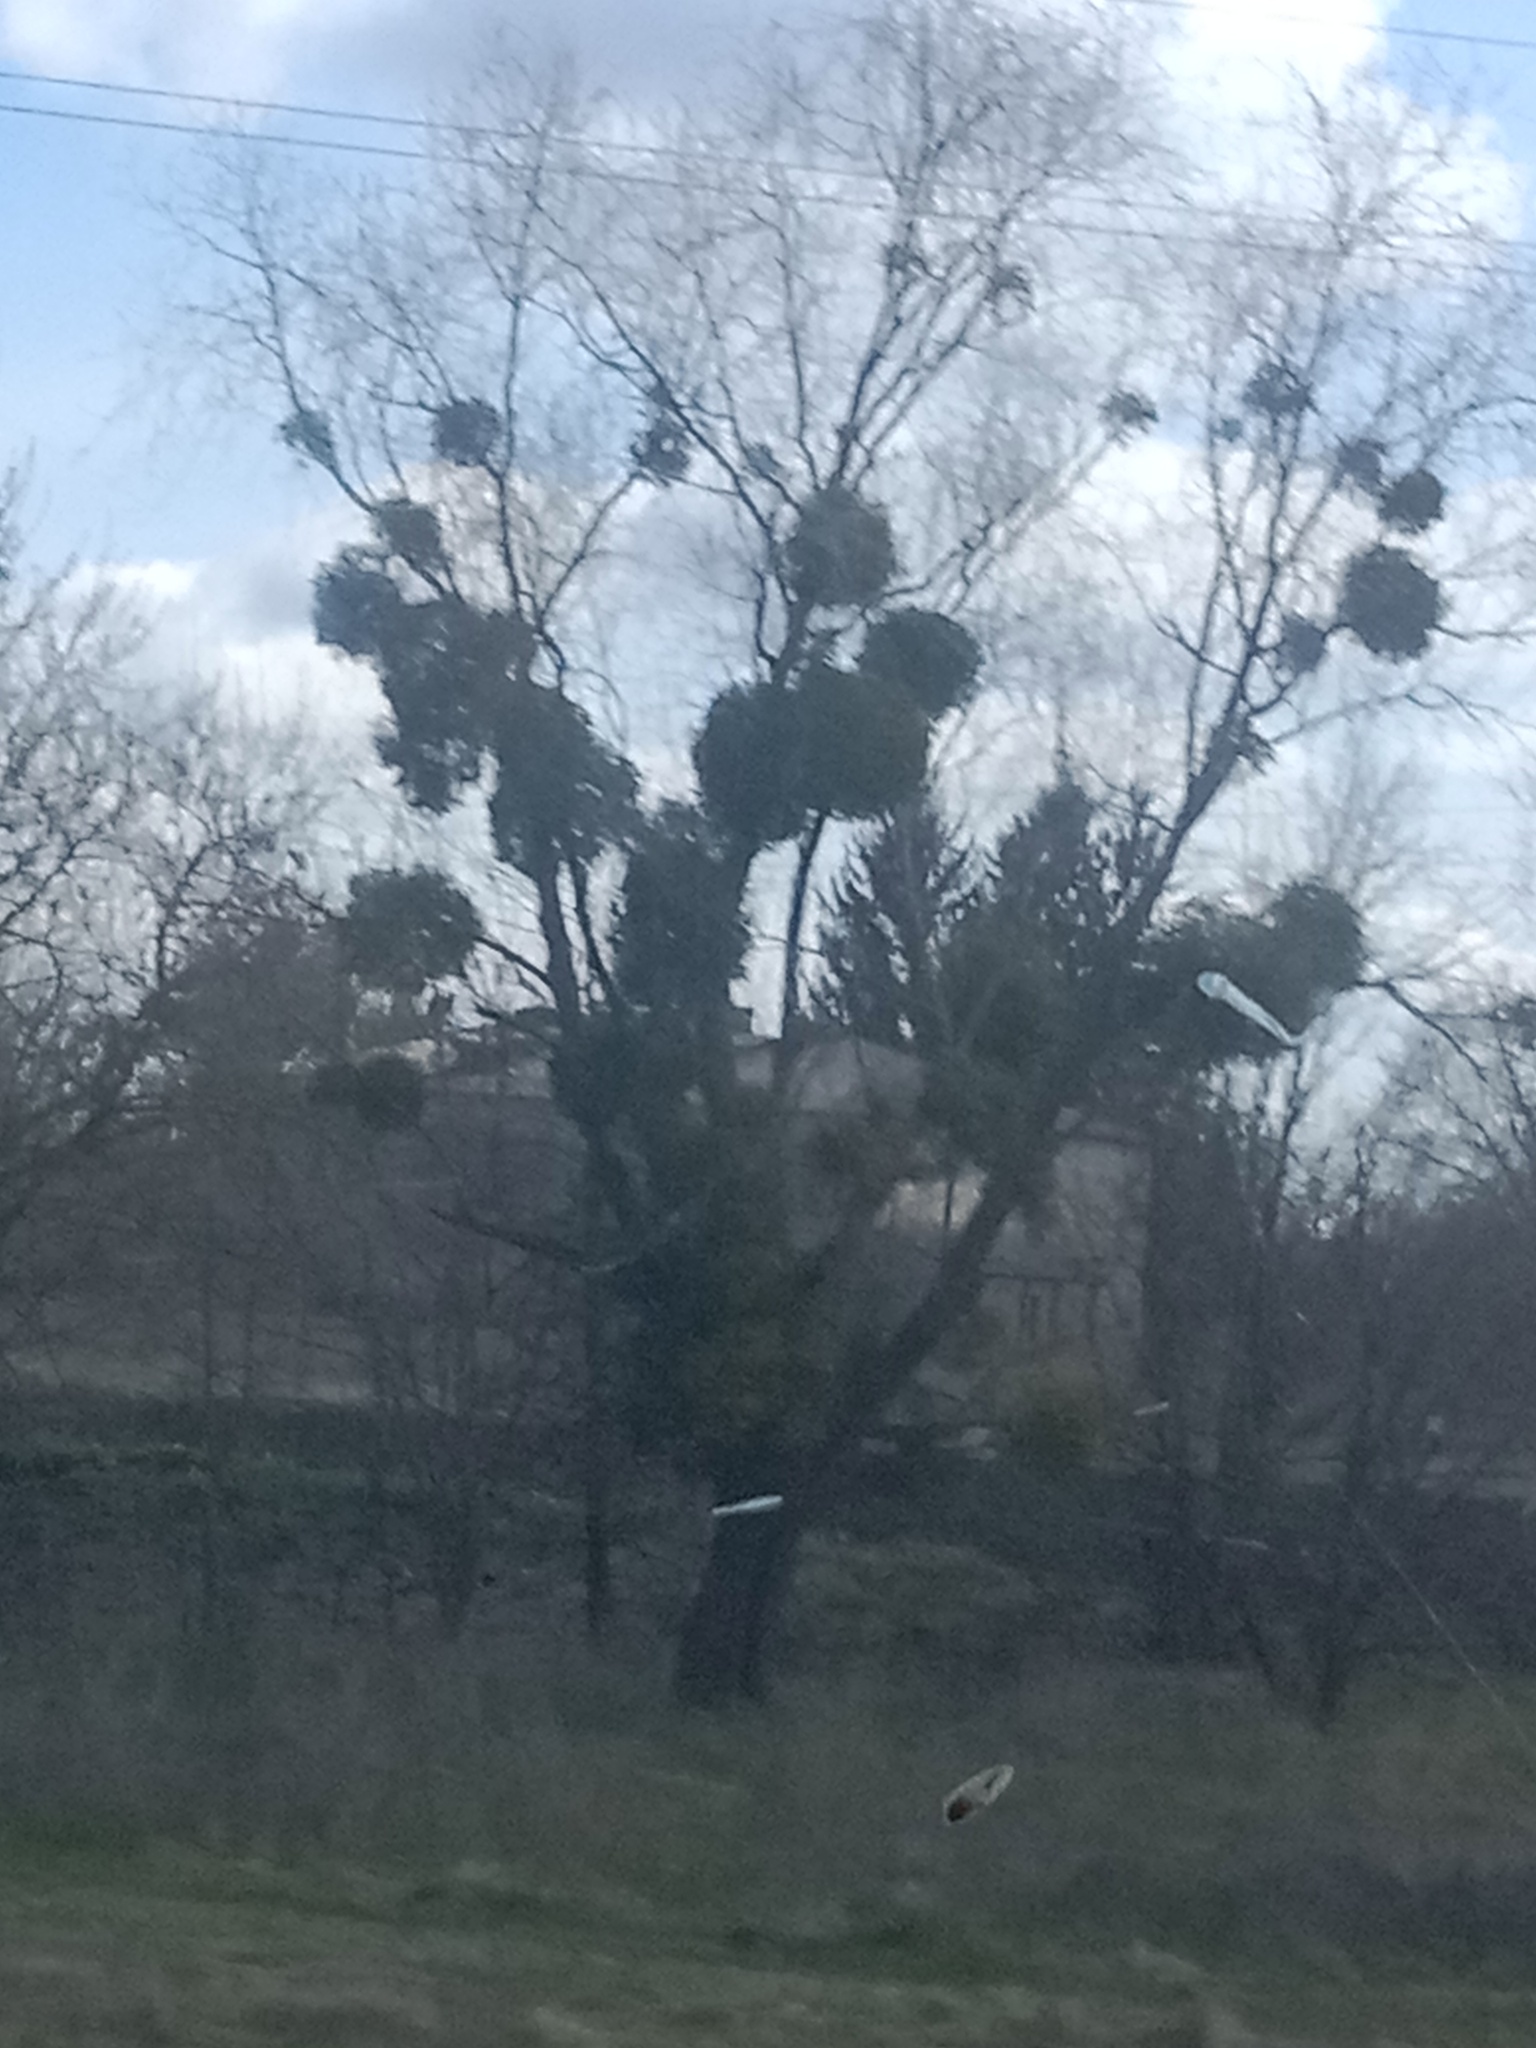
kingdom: Plantae
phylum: Tracheophyta
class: Magnoliopsida
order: Santalales
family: Viscaceae
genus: Viscum
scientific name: Viscum album
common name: Mistletoe
